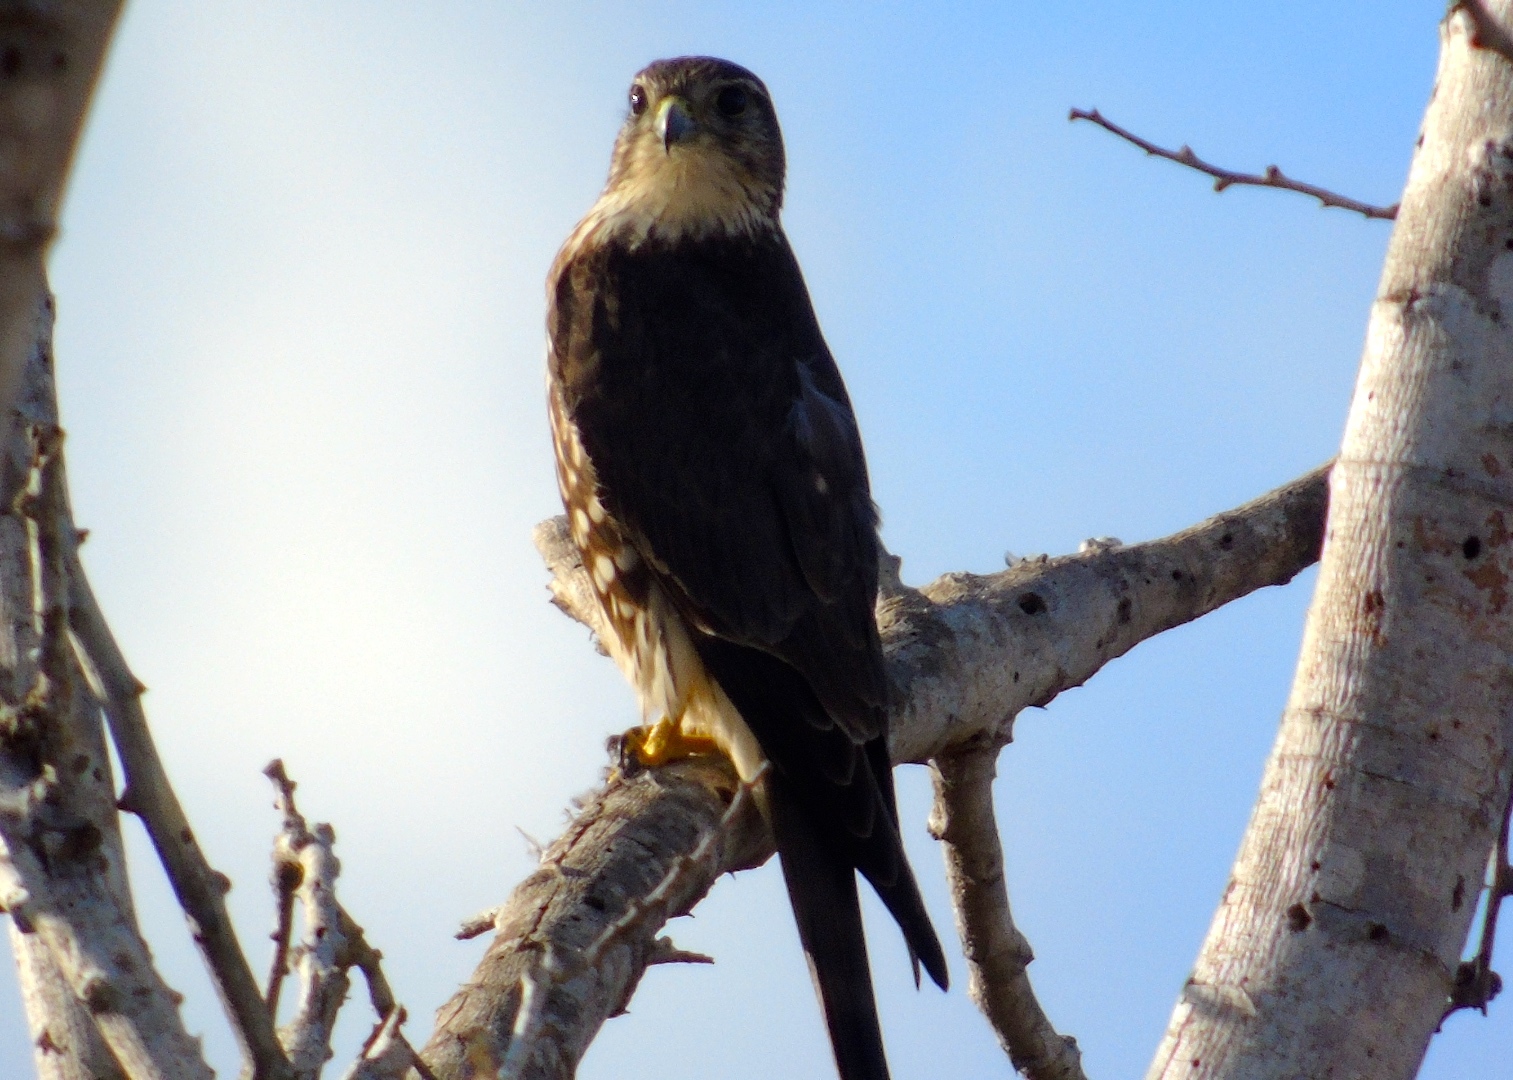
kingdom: Animalia
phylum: Chordata
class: Aves
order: Falconiformes
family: Falconidae
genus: Falco
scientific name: Falco columbarius
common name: Merlin
